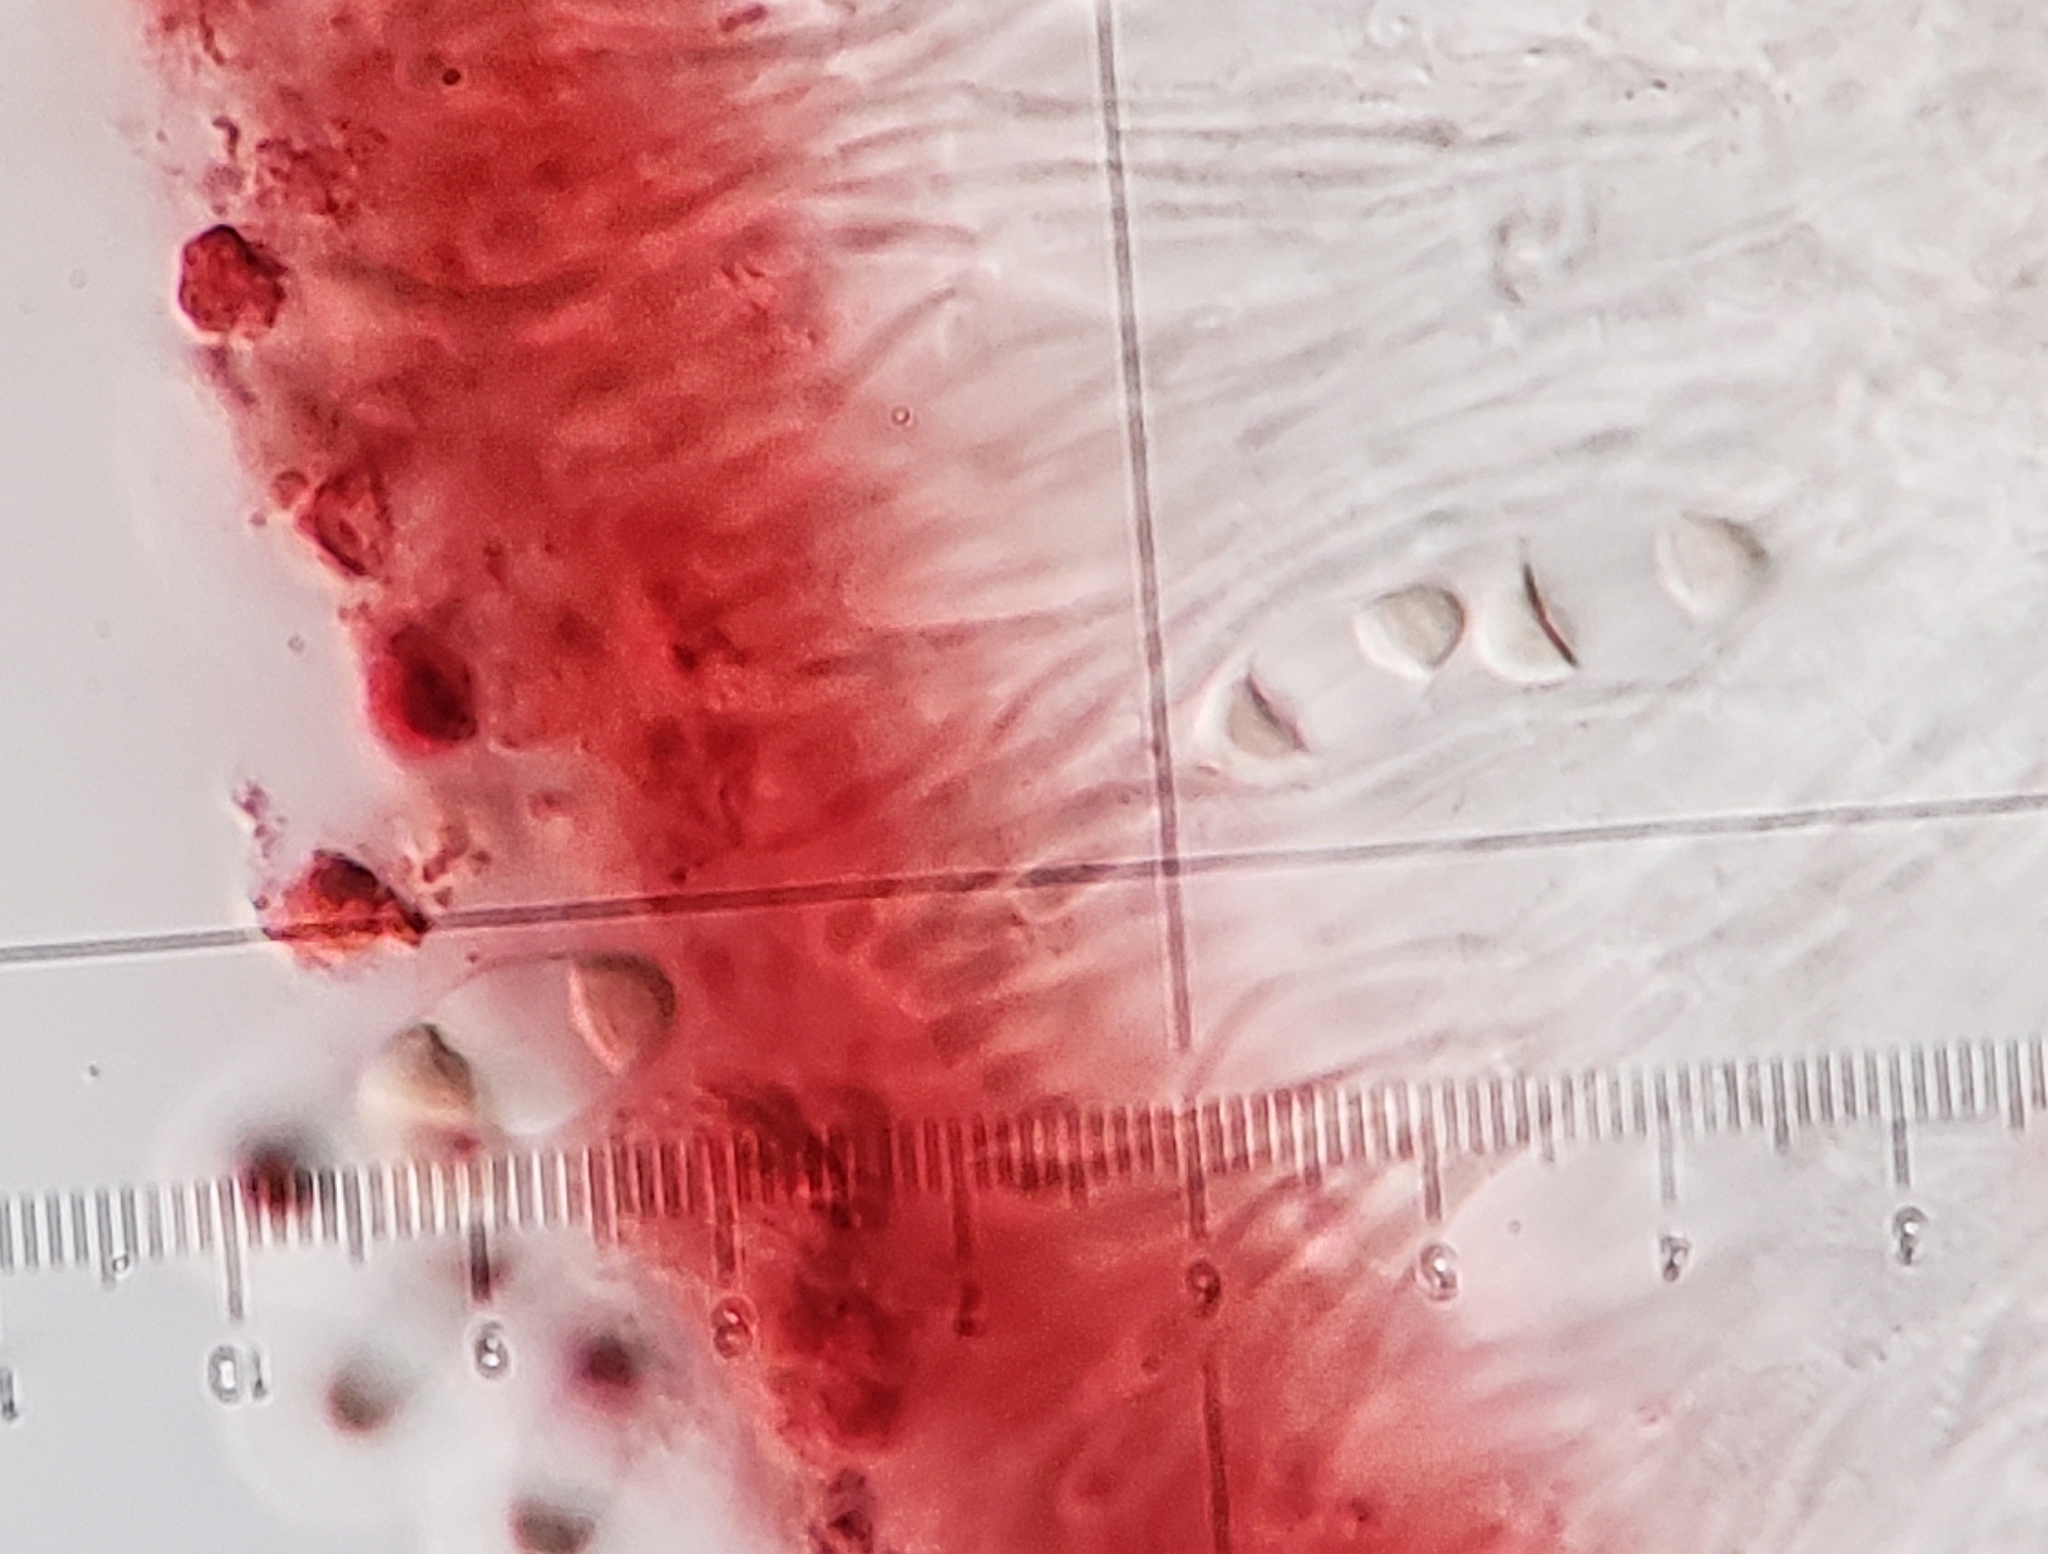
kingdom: Fungi
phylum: Ascomycota
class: Lecanoromycetes
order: Teloschistales
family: Teloschistaceae
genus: Gyalolechia
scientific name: Gyalolechia flavovirescens
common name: Sulphur firedot
